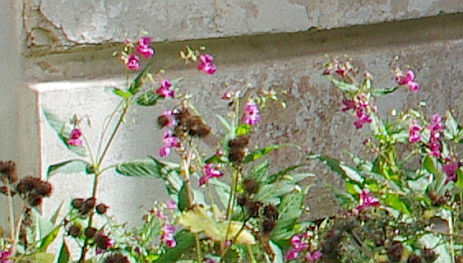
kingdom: Plantae
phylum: Tracheophyta
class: Magnoliopsida
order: Ericales
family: Balsaminaceae
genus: Impatiens
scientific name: Impatiens glandulifera
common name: Himalayan balsam
